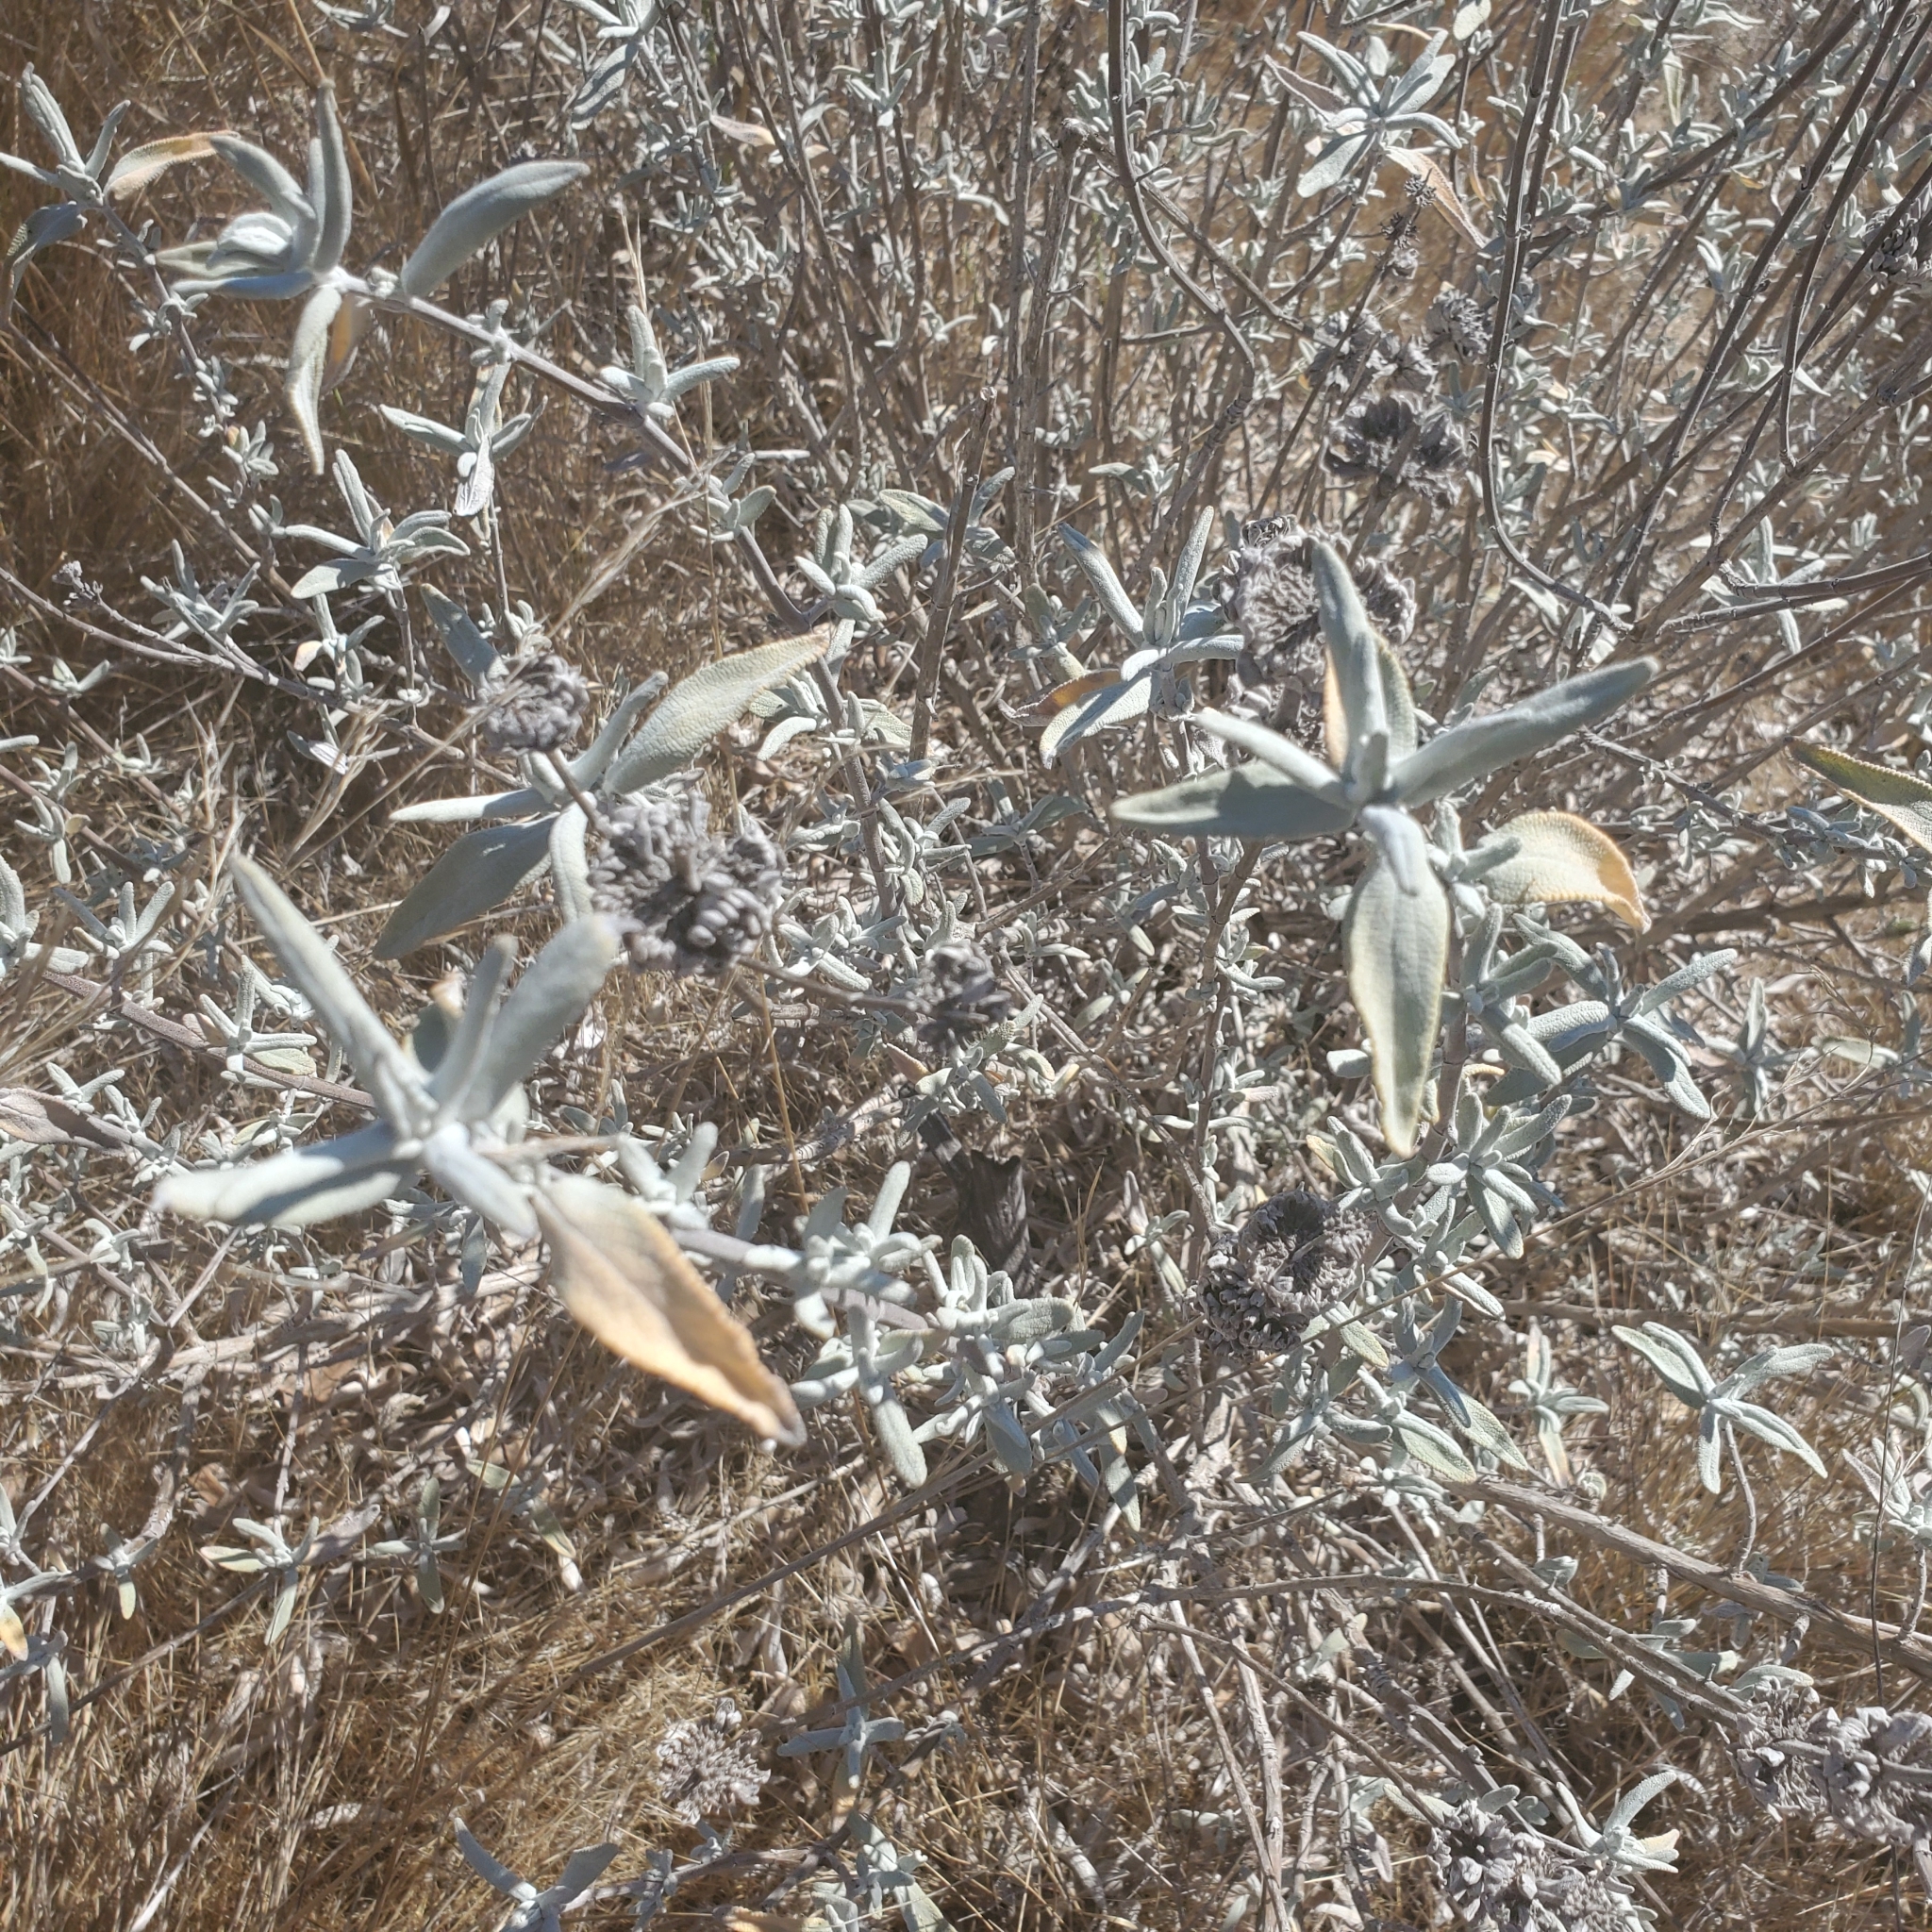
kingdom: Plantae
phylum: Tracheophyta
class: Magnoliopsida
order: Lamiales
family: Lamiaceae
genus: Salvia
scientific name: Salvia leucophylla
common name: Purple sage
